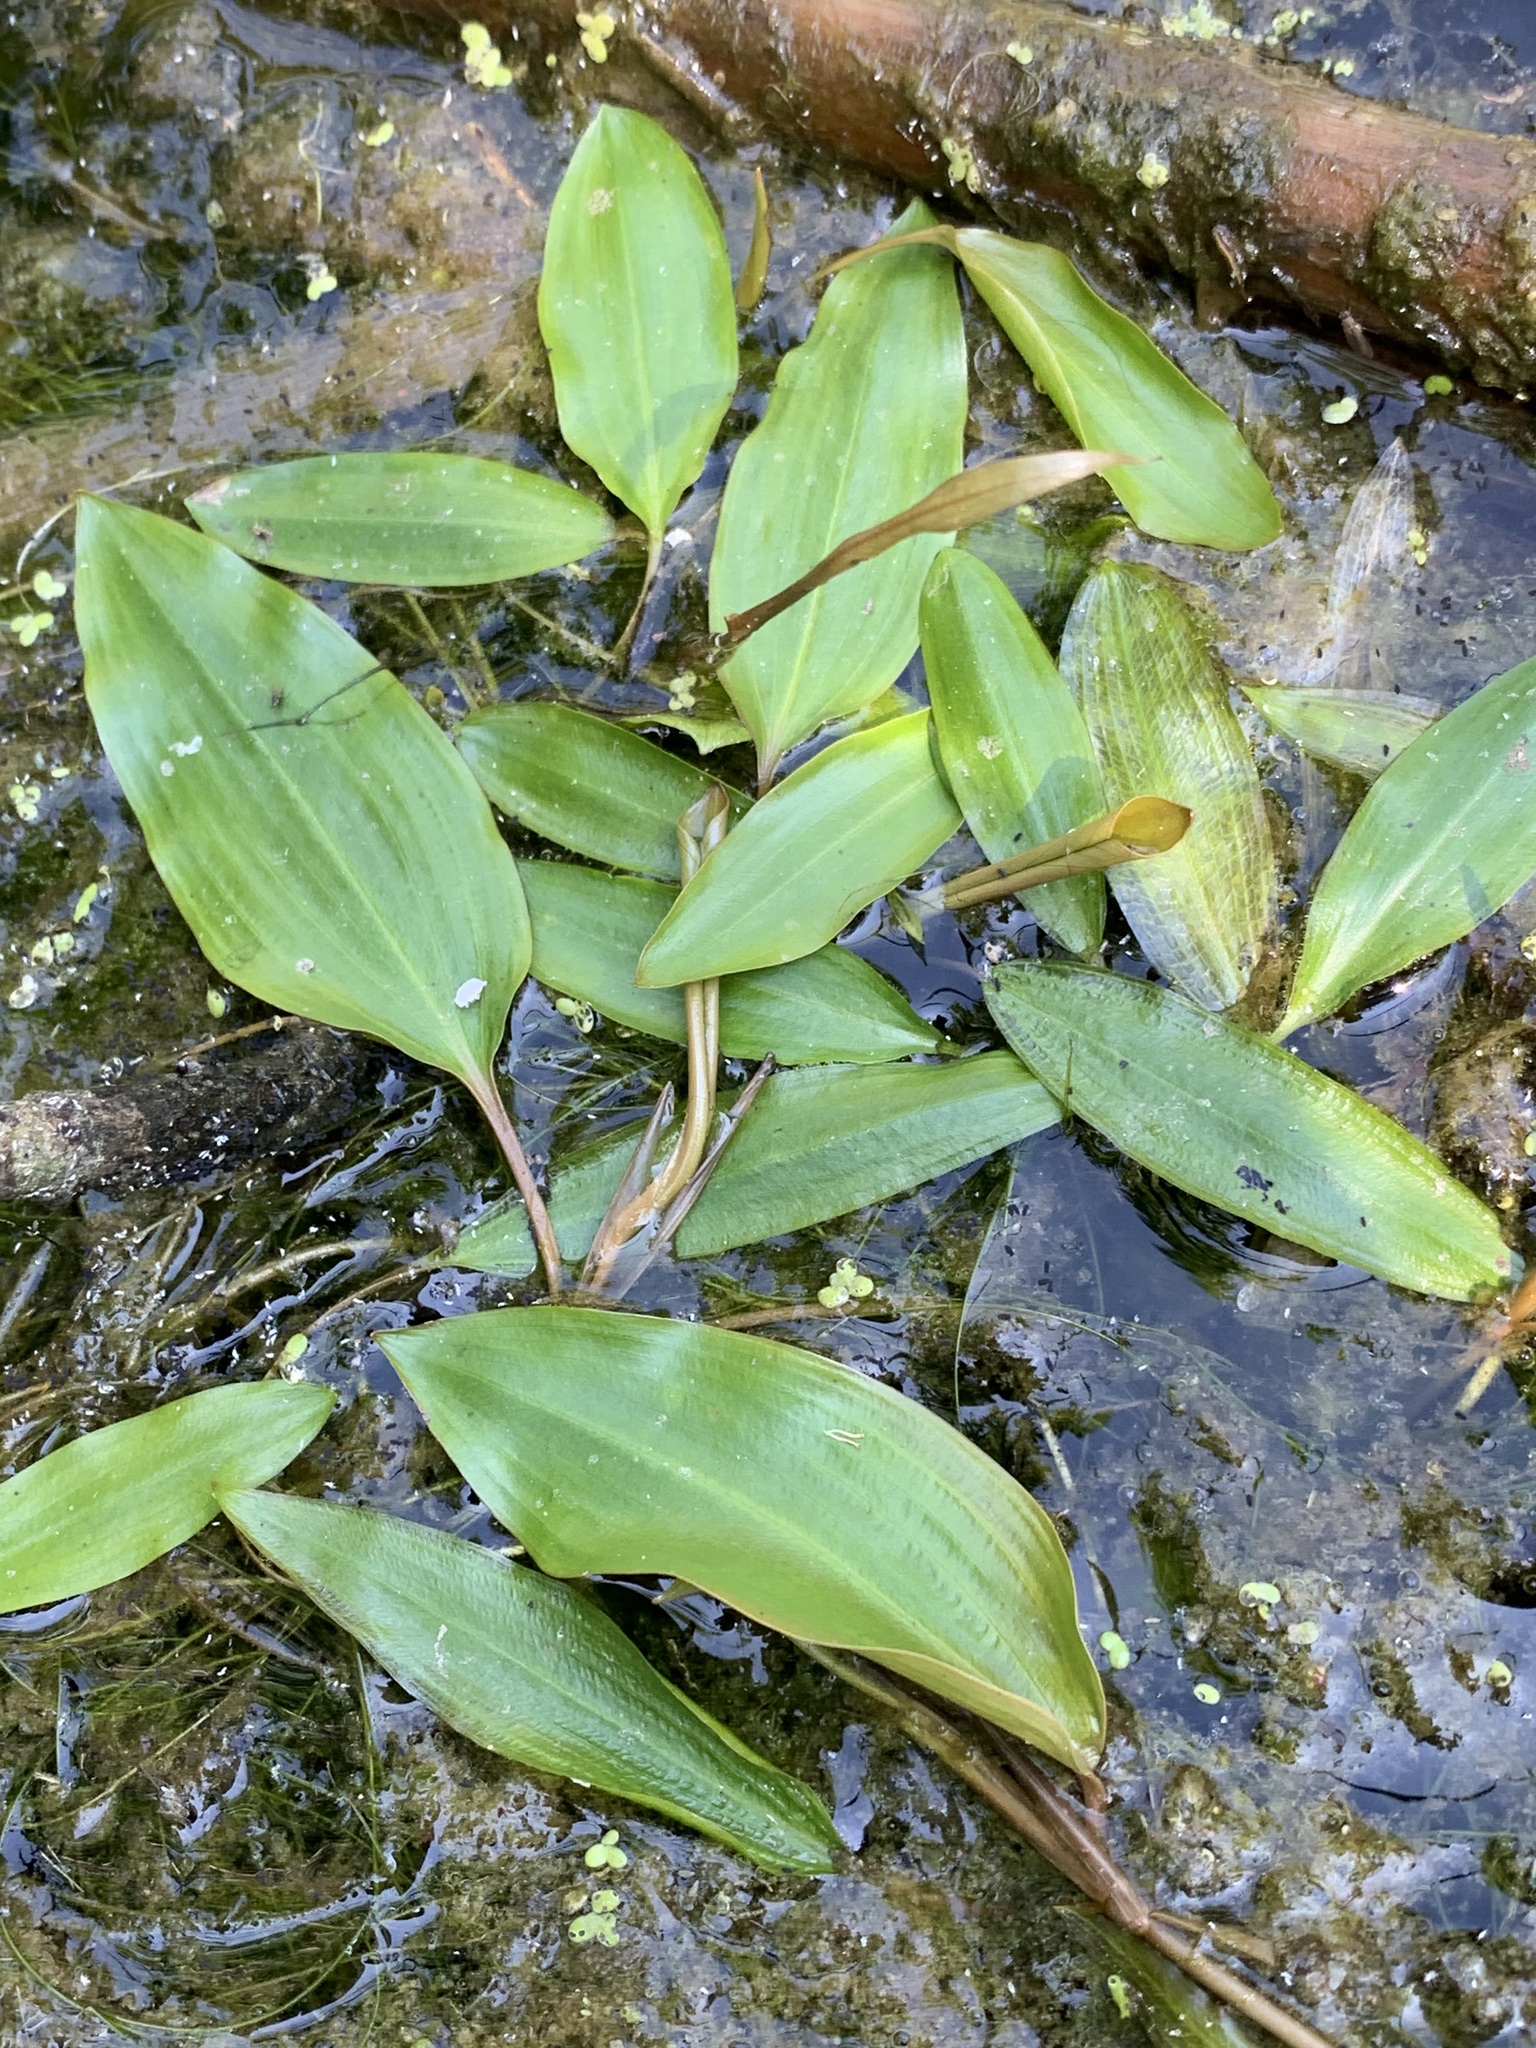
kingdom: Plantae
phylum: Tracheophyta
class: Liliopsida
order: Alismatales
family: Potamogetonaceae
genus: Potamogeton
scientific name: Potamogeton gramineus
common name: Various-leaved pondweed
